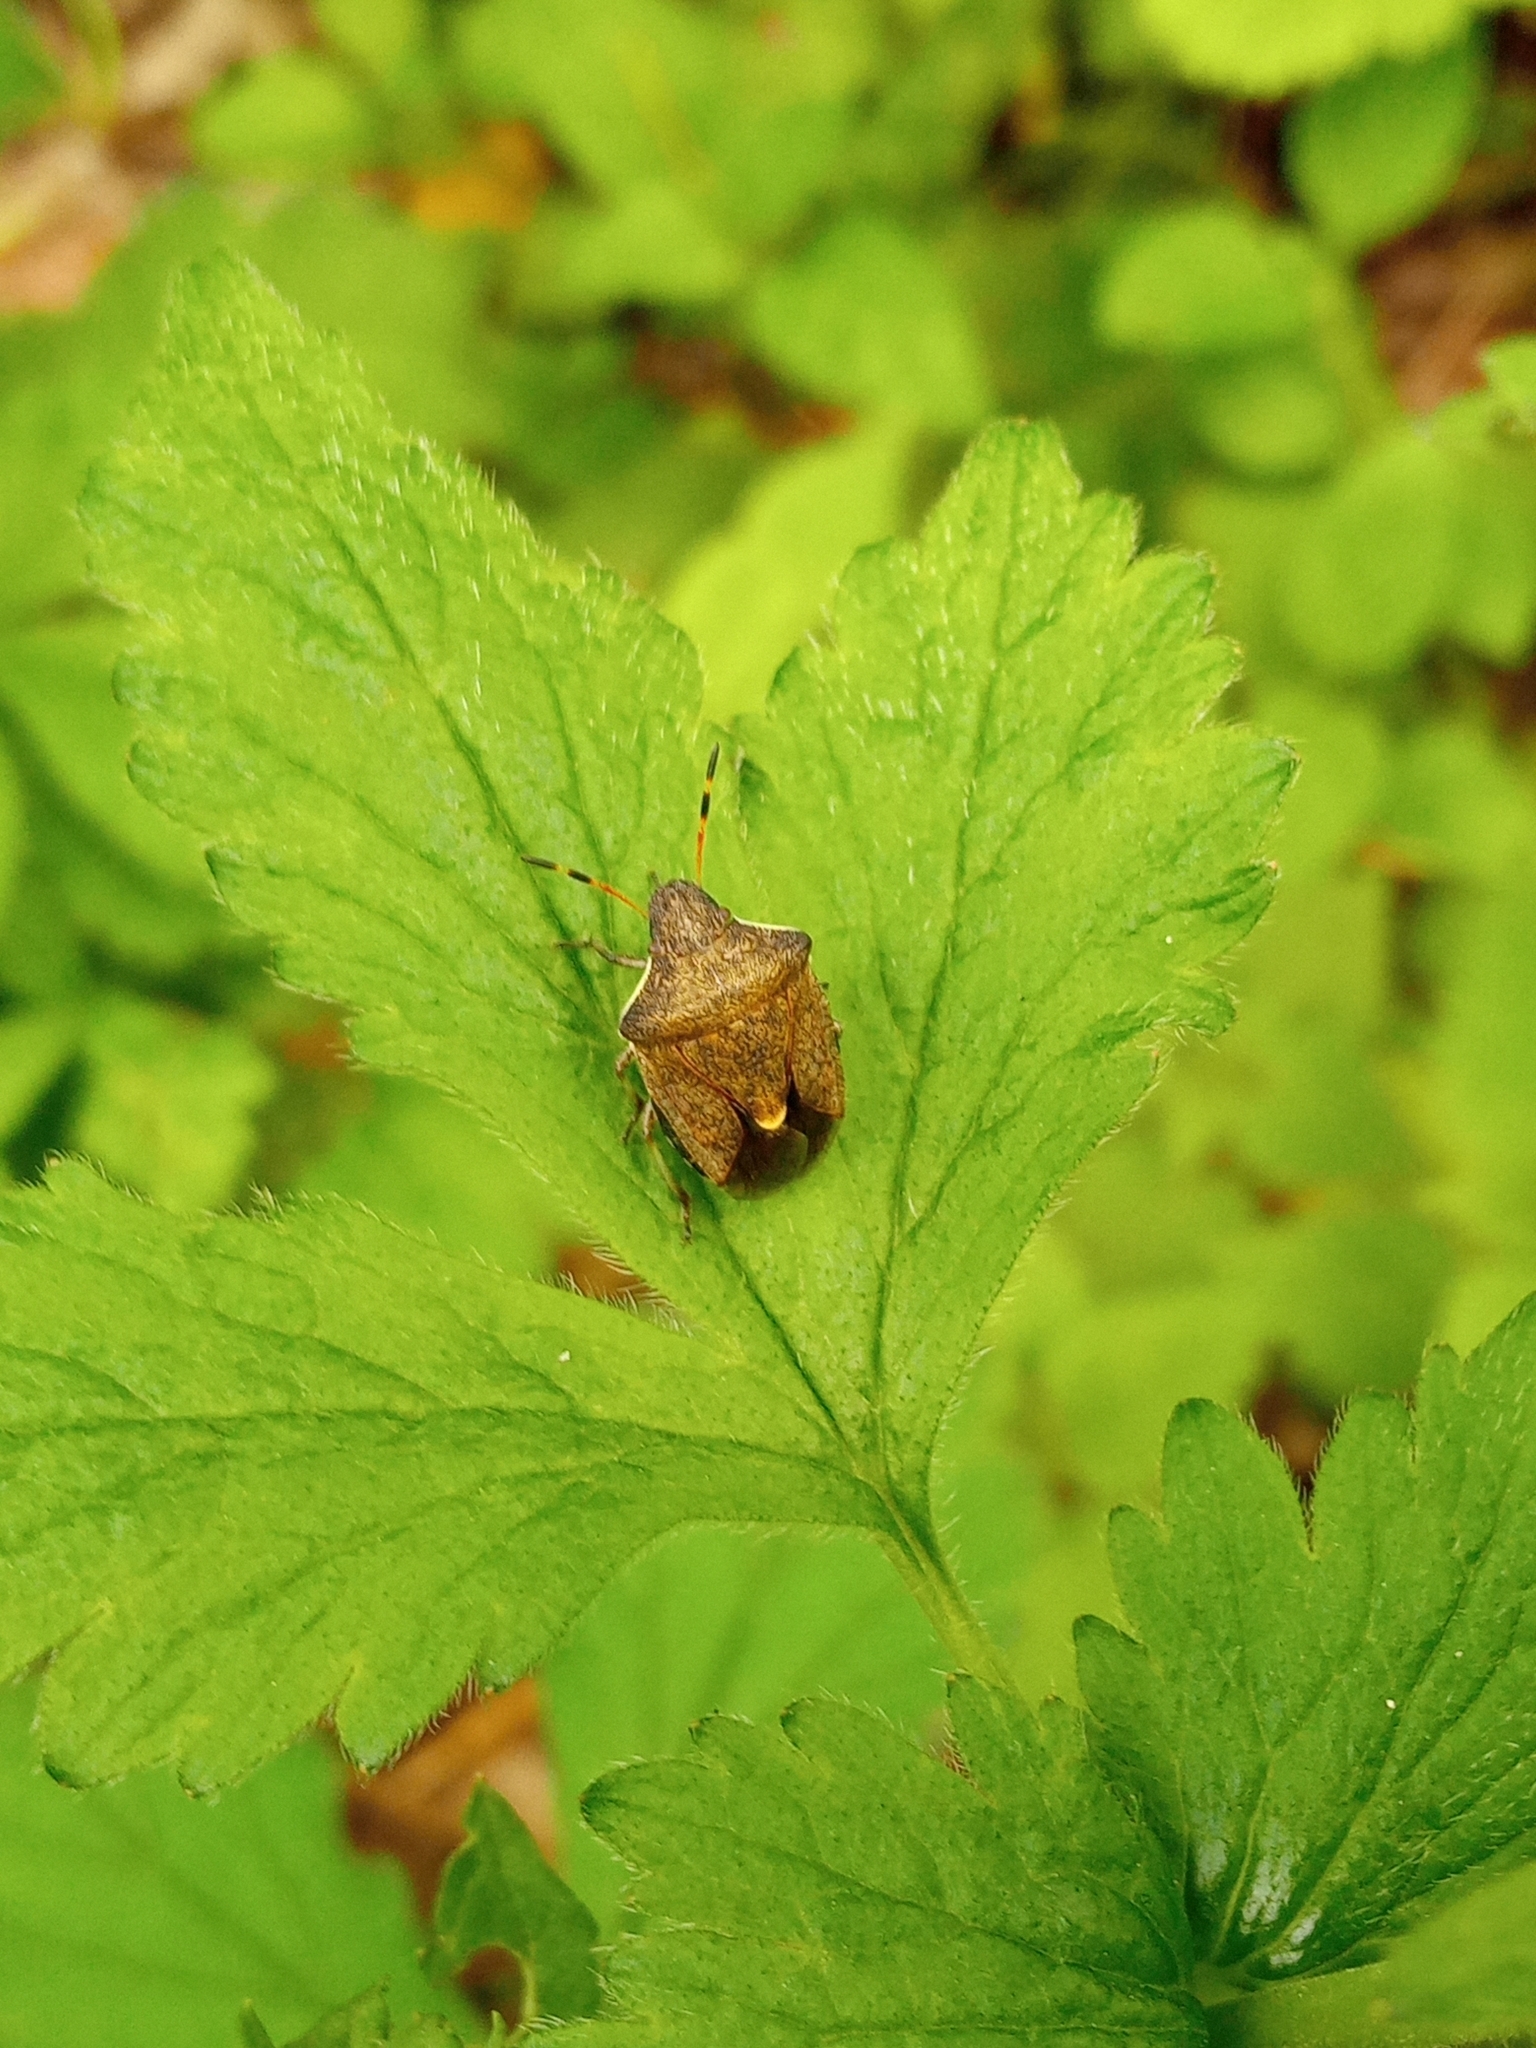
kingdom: Animalia
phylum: Arthropoda
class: Insecta
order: Hemiptera
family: Pentatomidae
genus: Holcostethus
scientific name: Holcostethus strictus
